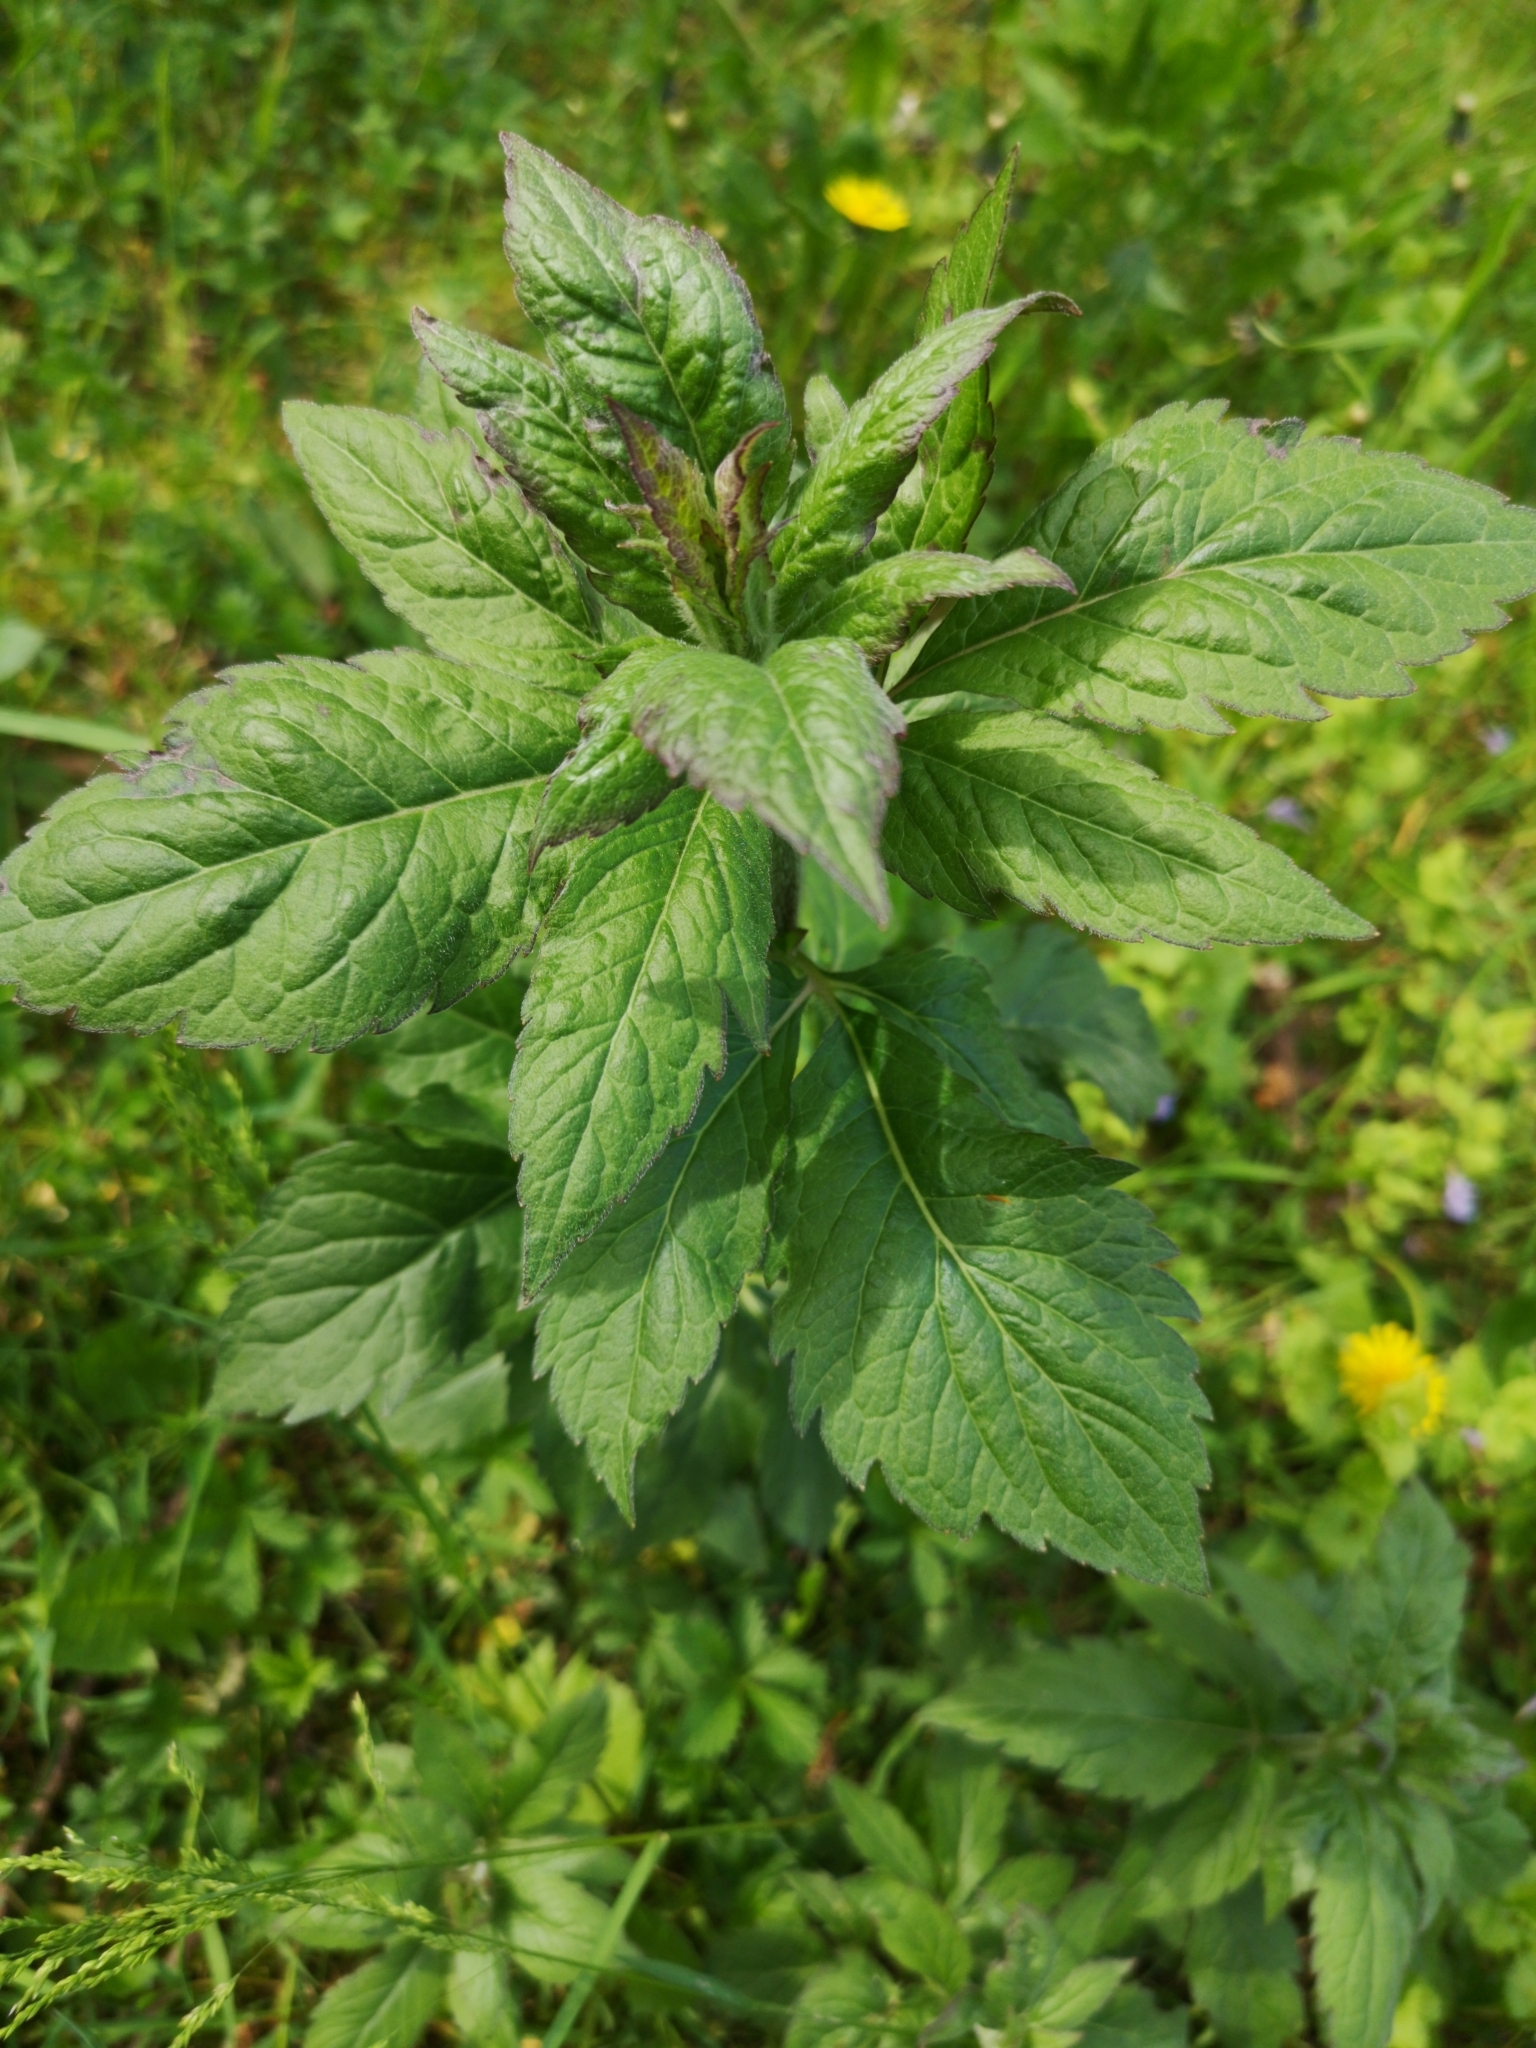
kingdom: Plantae
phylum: Tracheophyta
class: Magnoliopsida
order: Asterales
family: Asteraceae
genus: Eupatorium
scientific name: Eupatorium cannabinum
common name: Hemp-agrimony
